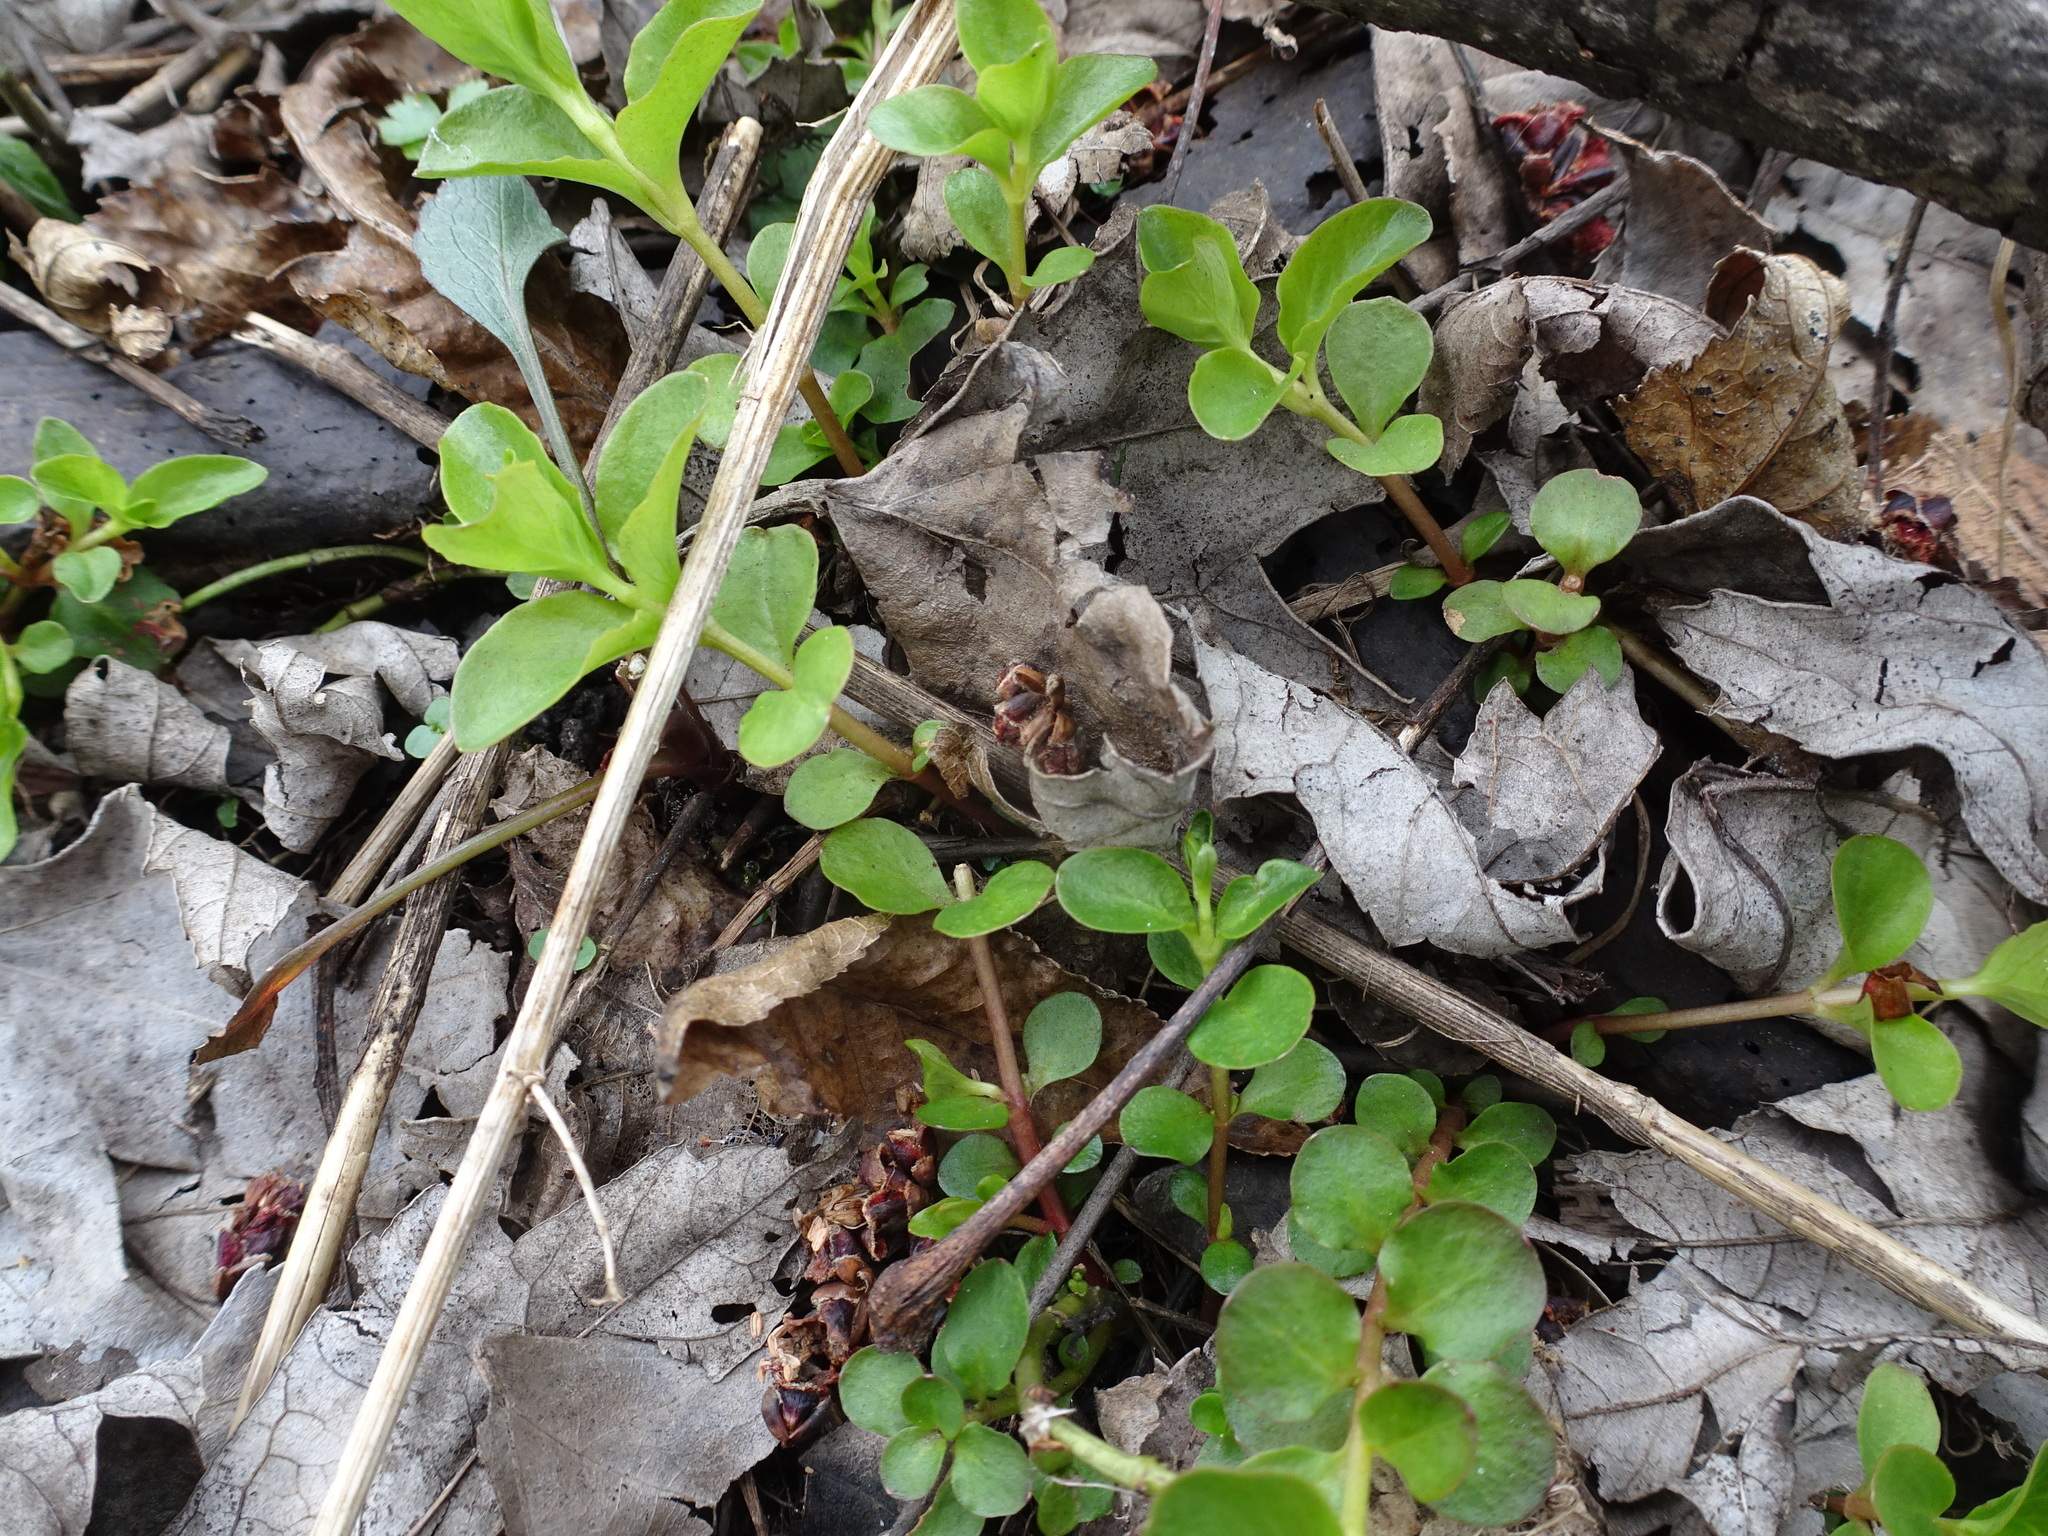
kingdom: Plantae
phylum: Tracheophyta
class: Magnoliopsida
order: Ericales
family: Primulaceae
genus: Lysimachia
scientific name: Lysimachia nummularia
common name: Moneywort
